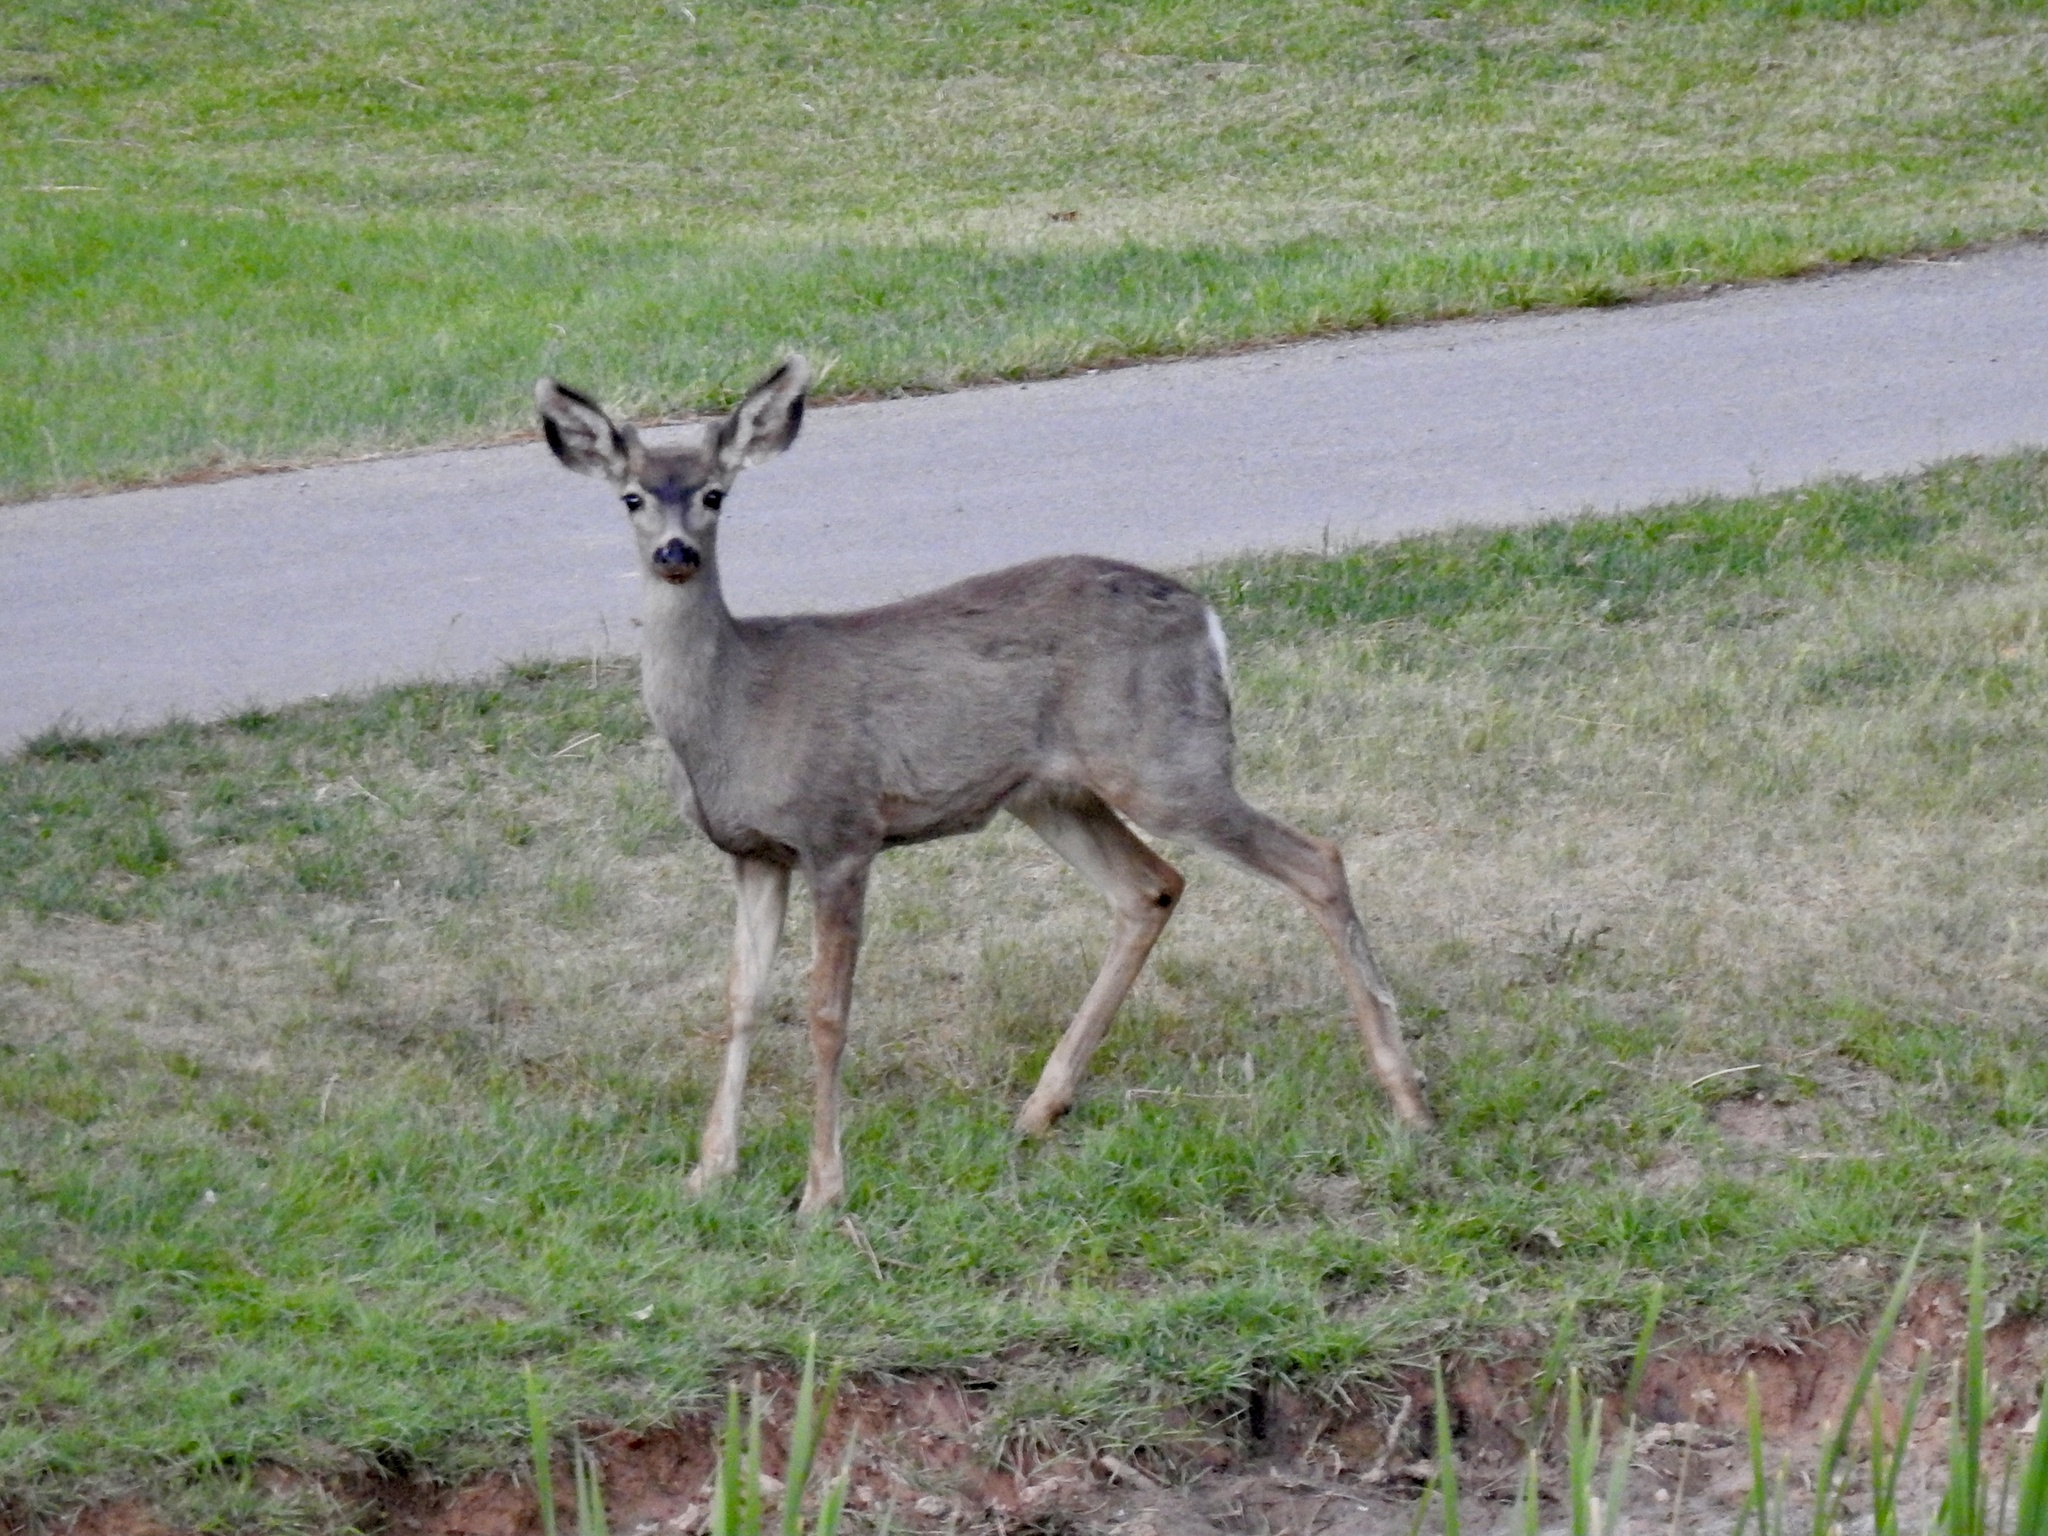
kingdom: Animalia
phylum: Chordata
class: Mammalia
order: Artiodactyla
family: Cervidae
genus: Odocoileus
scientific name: Odocoileus hemionus
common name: Mule deer
